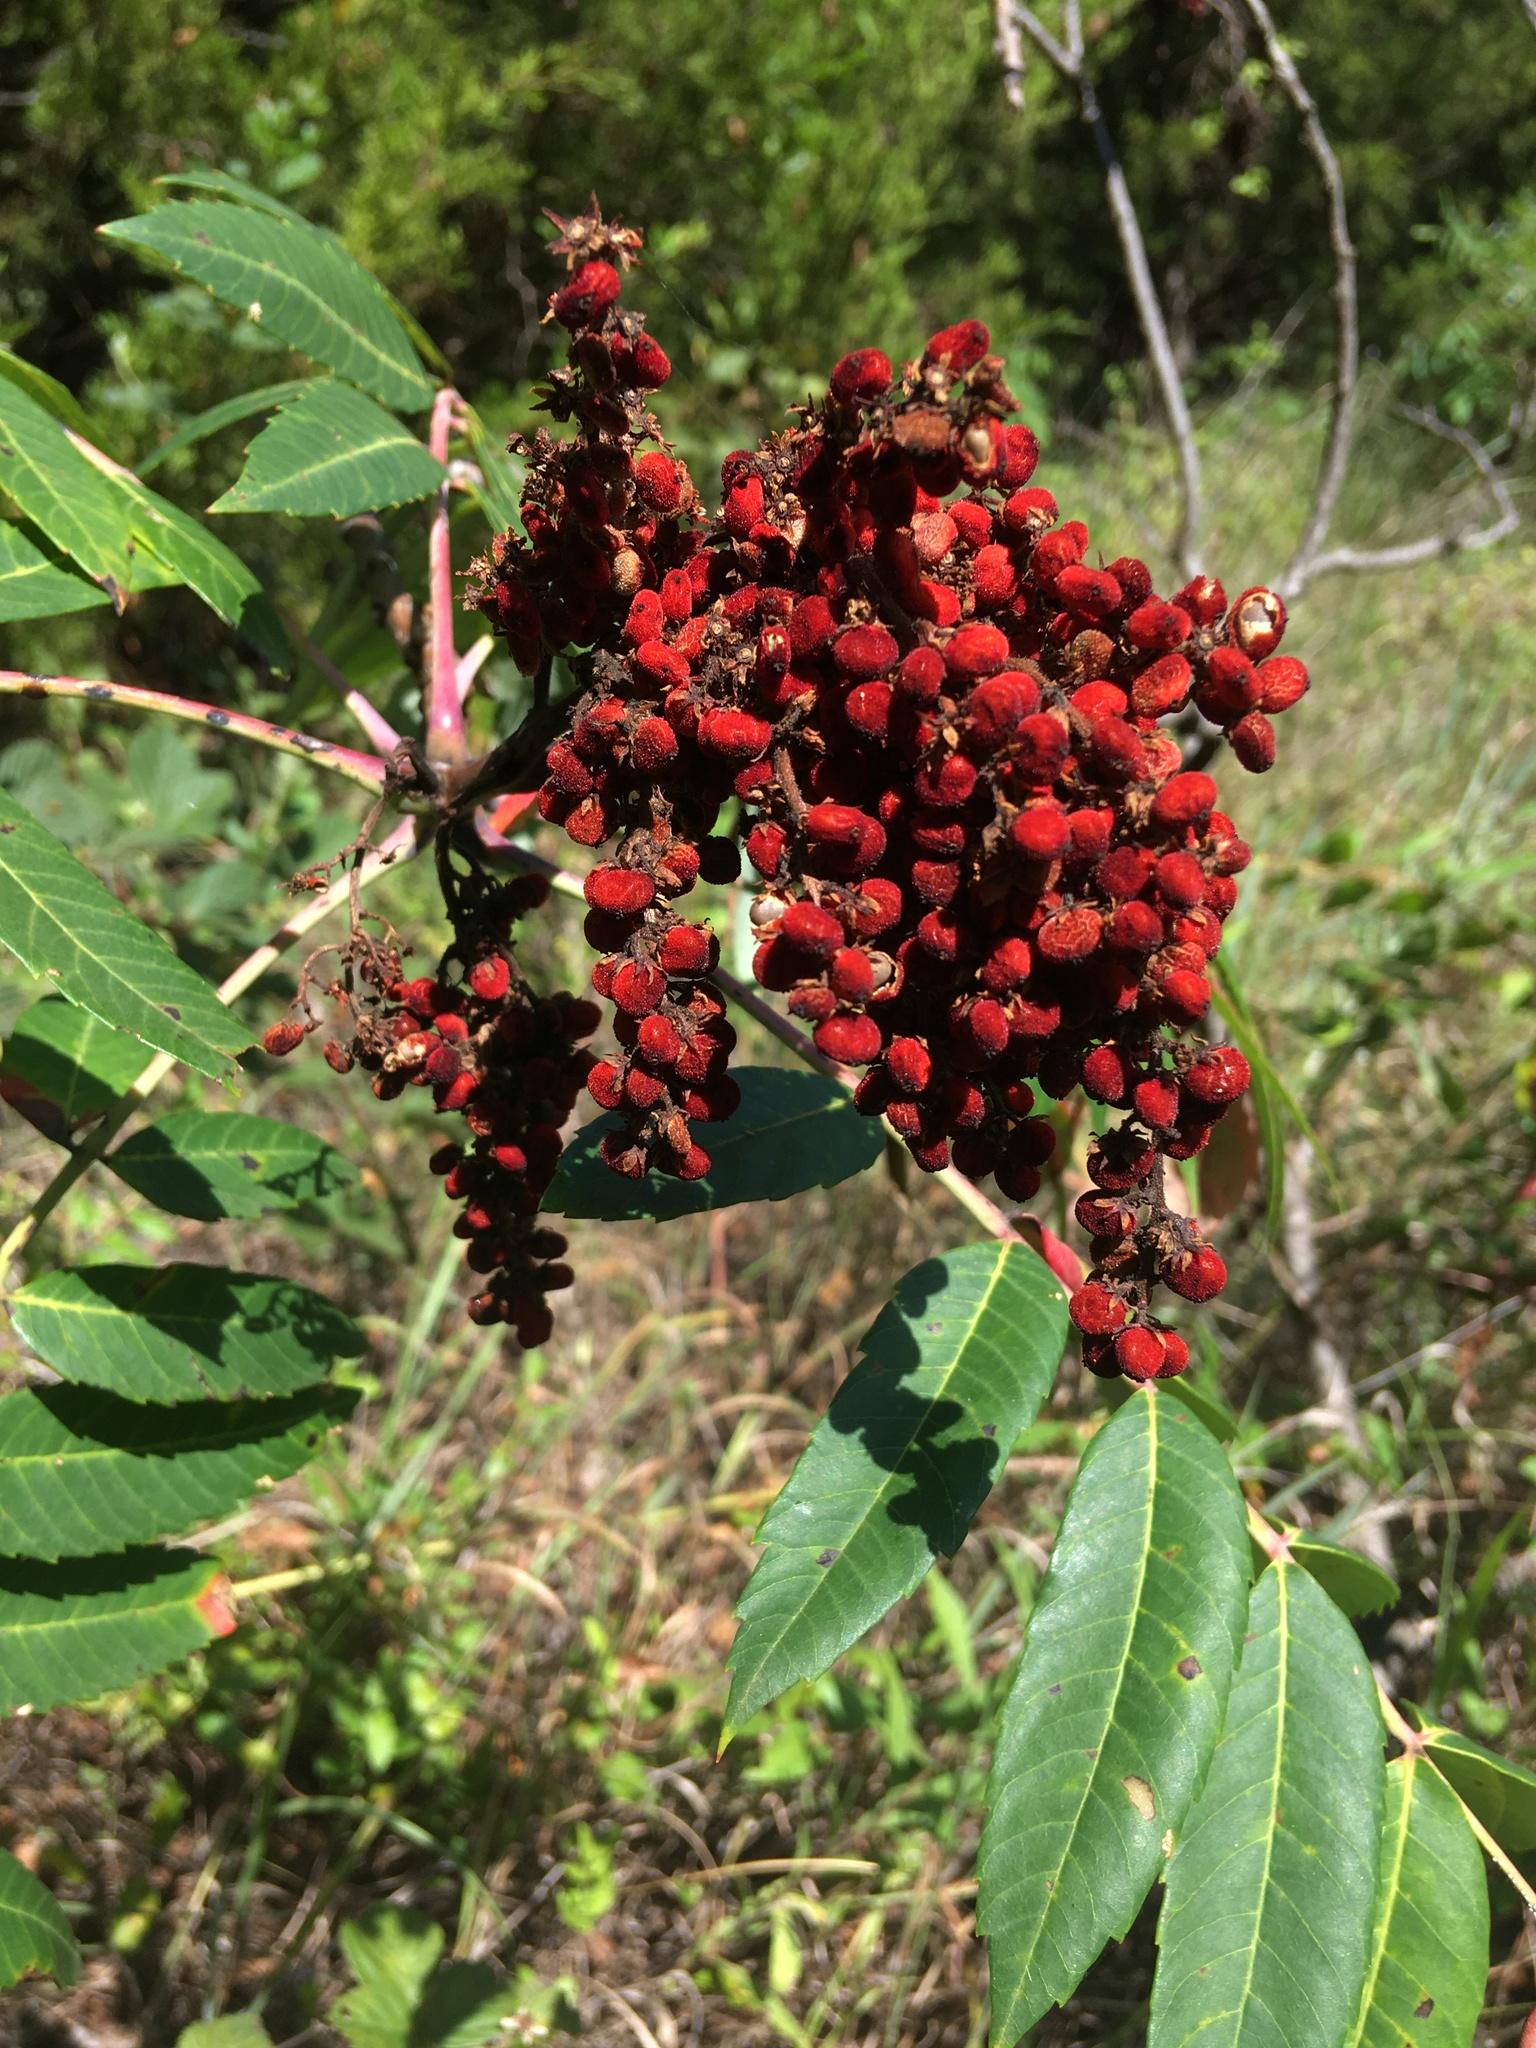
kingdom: Plantae
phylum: Tracheophyta
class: Magnoliopsida
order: Sapindales
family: Anacardiaceae
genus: Rhus
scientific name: Rhus glabra
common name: Scarlet sumac
